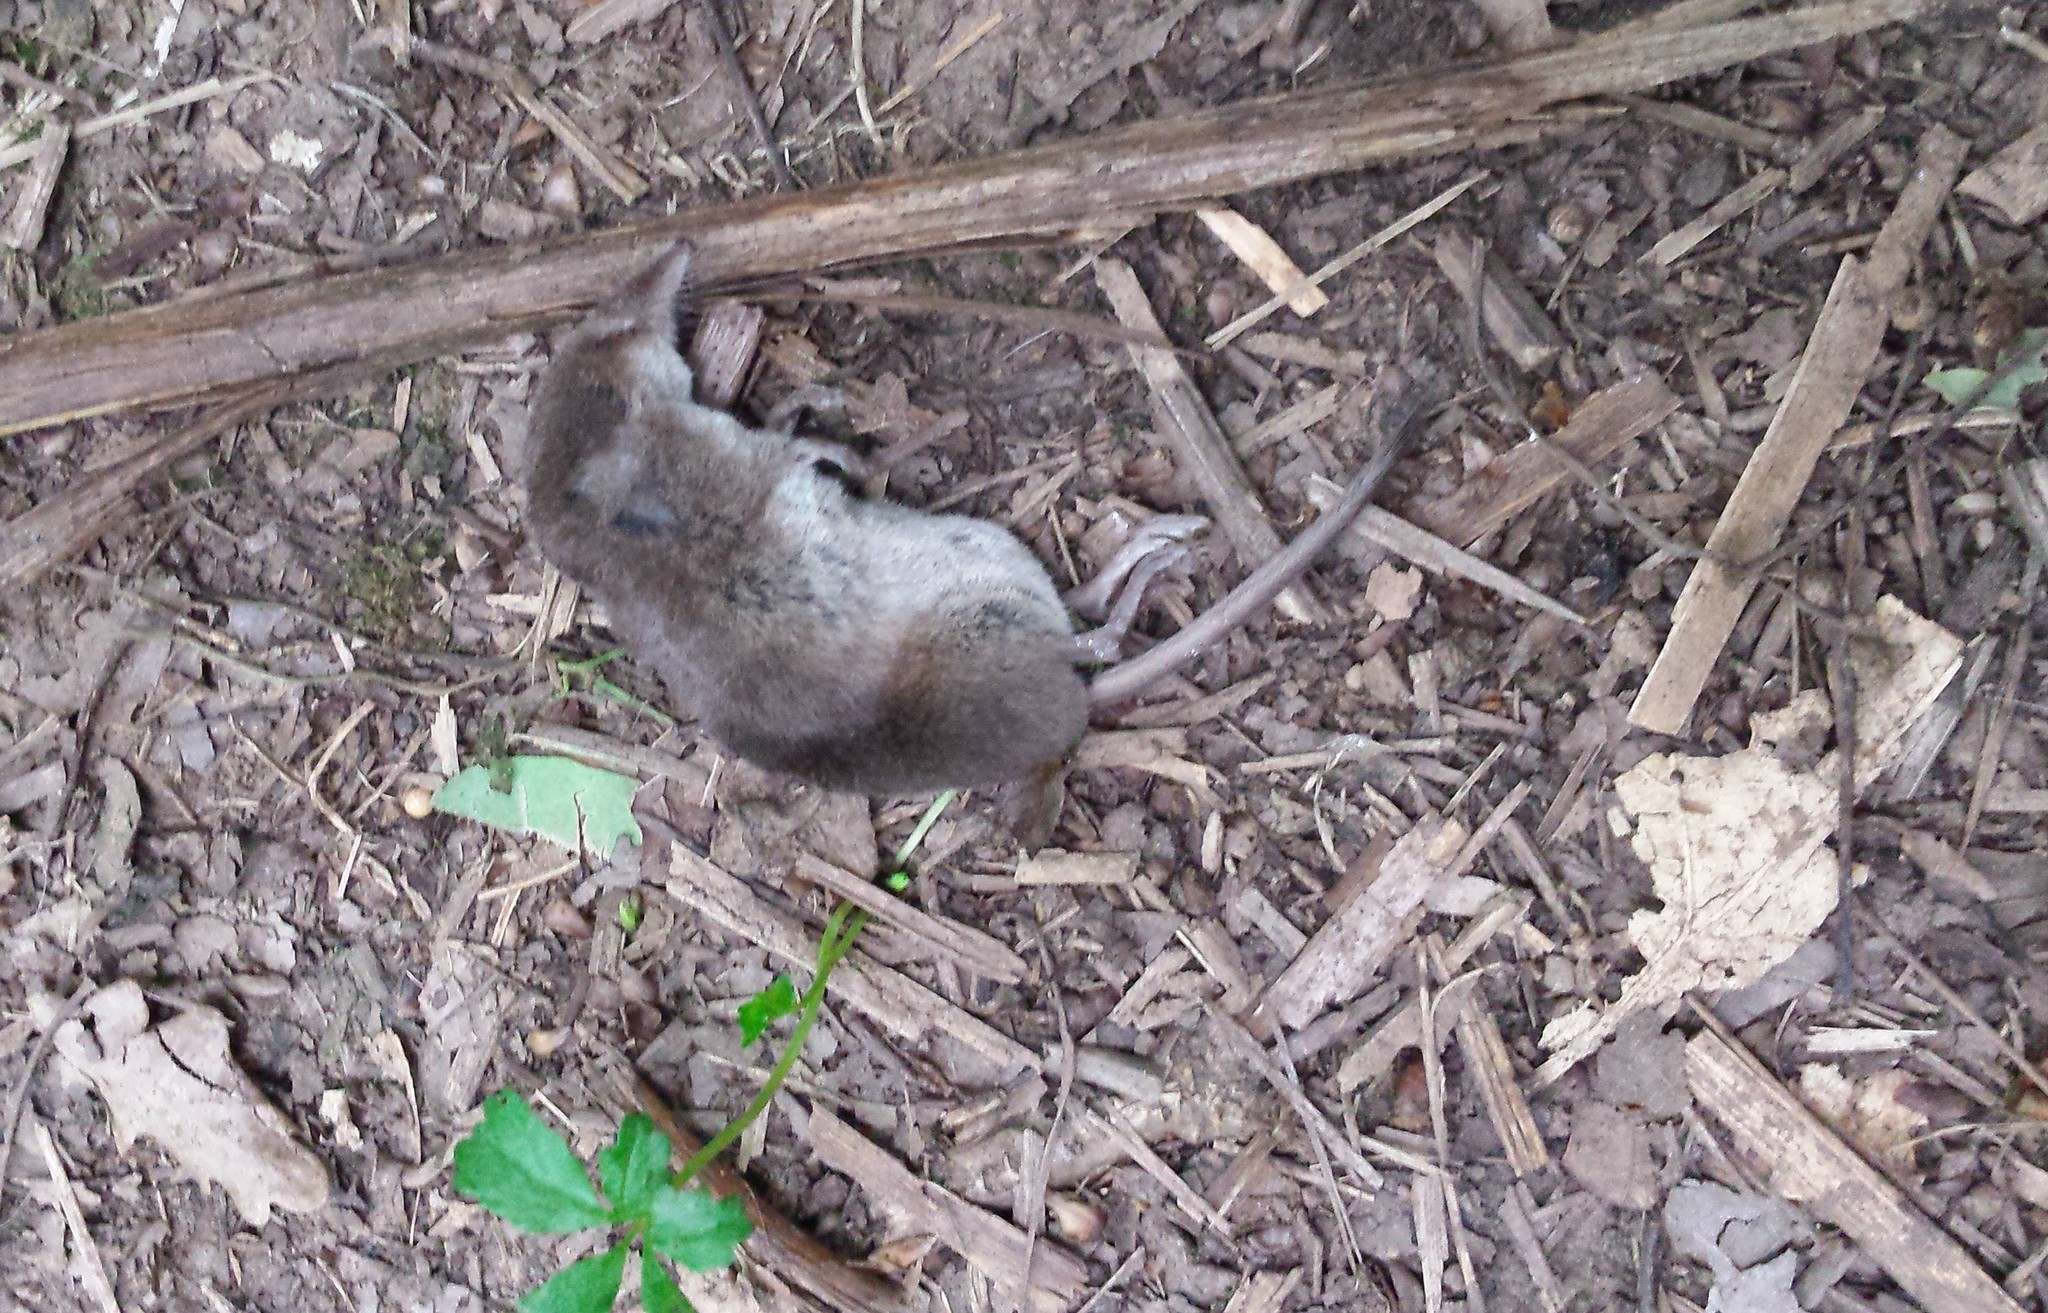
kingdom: Animalia
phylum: Chordata
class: Mammalia
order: Soricomorpha
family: Soricidae
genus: Sorex
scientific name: Sorex araneus
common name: Common shrew
